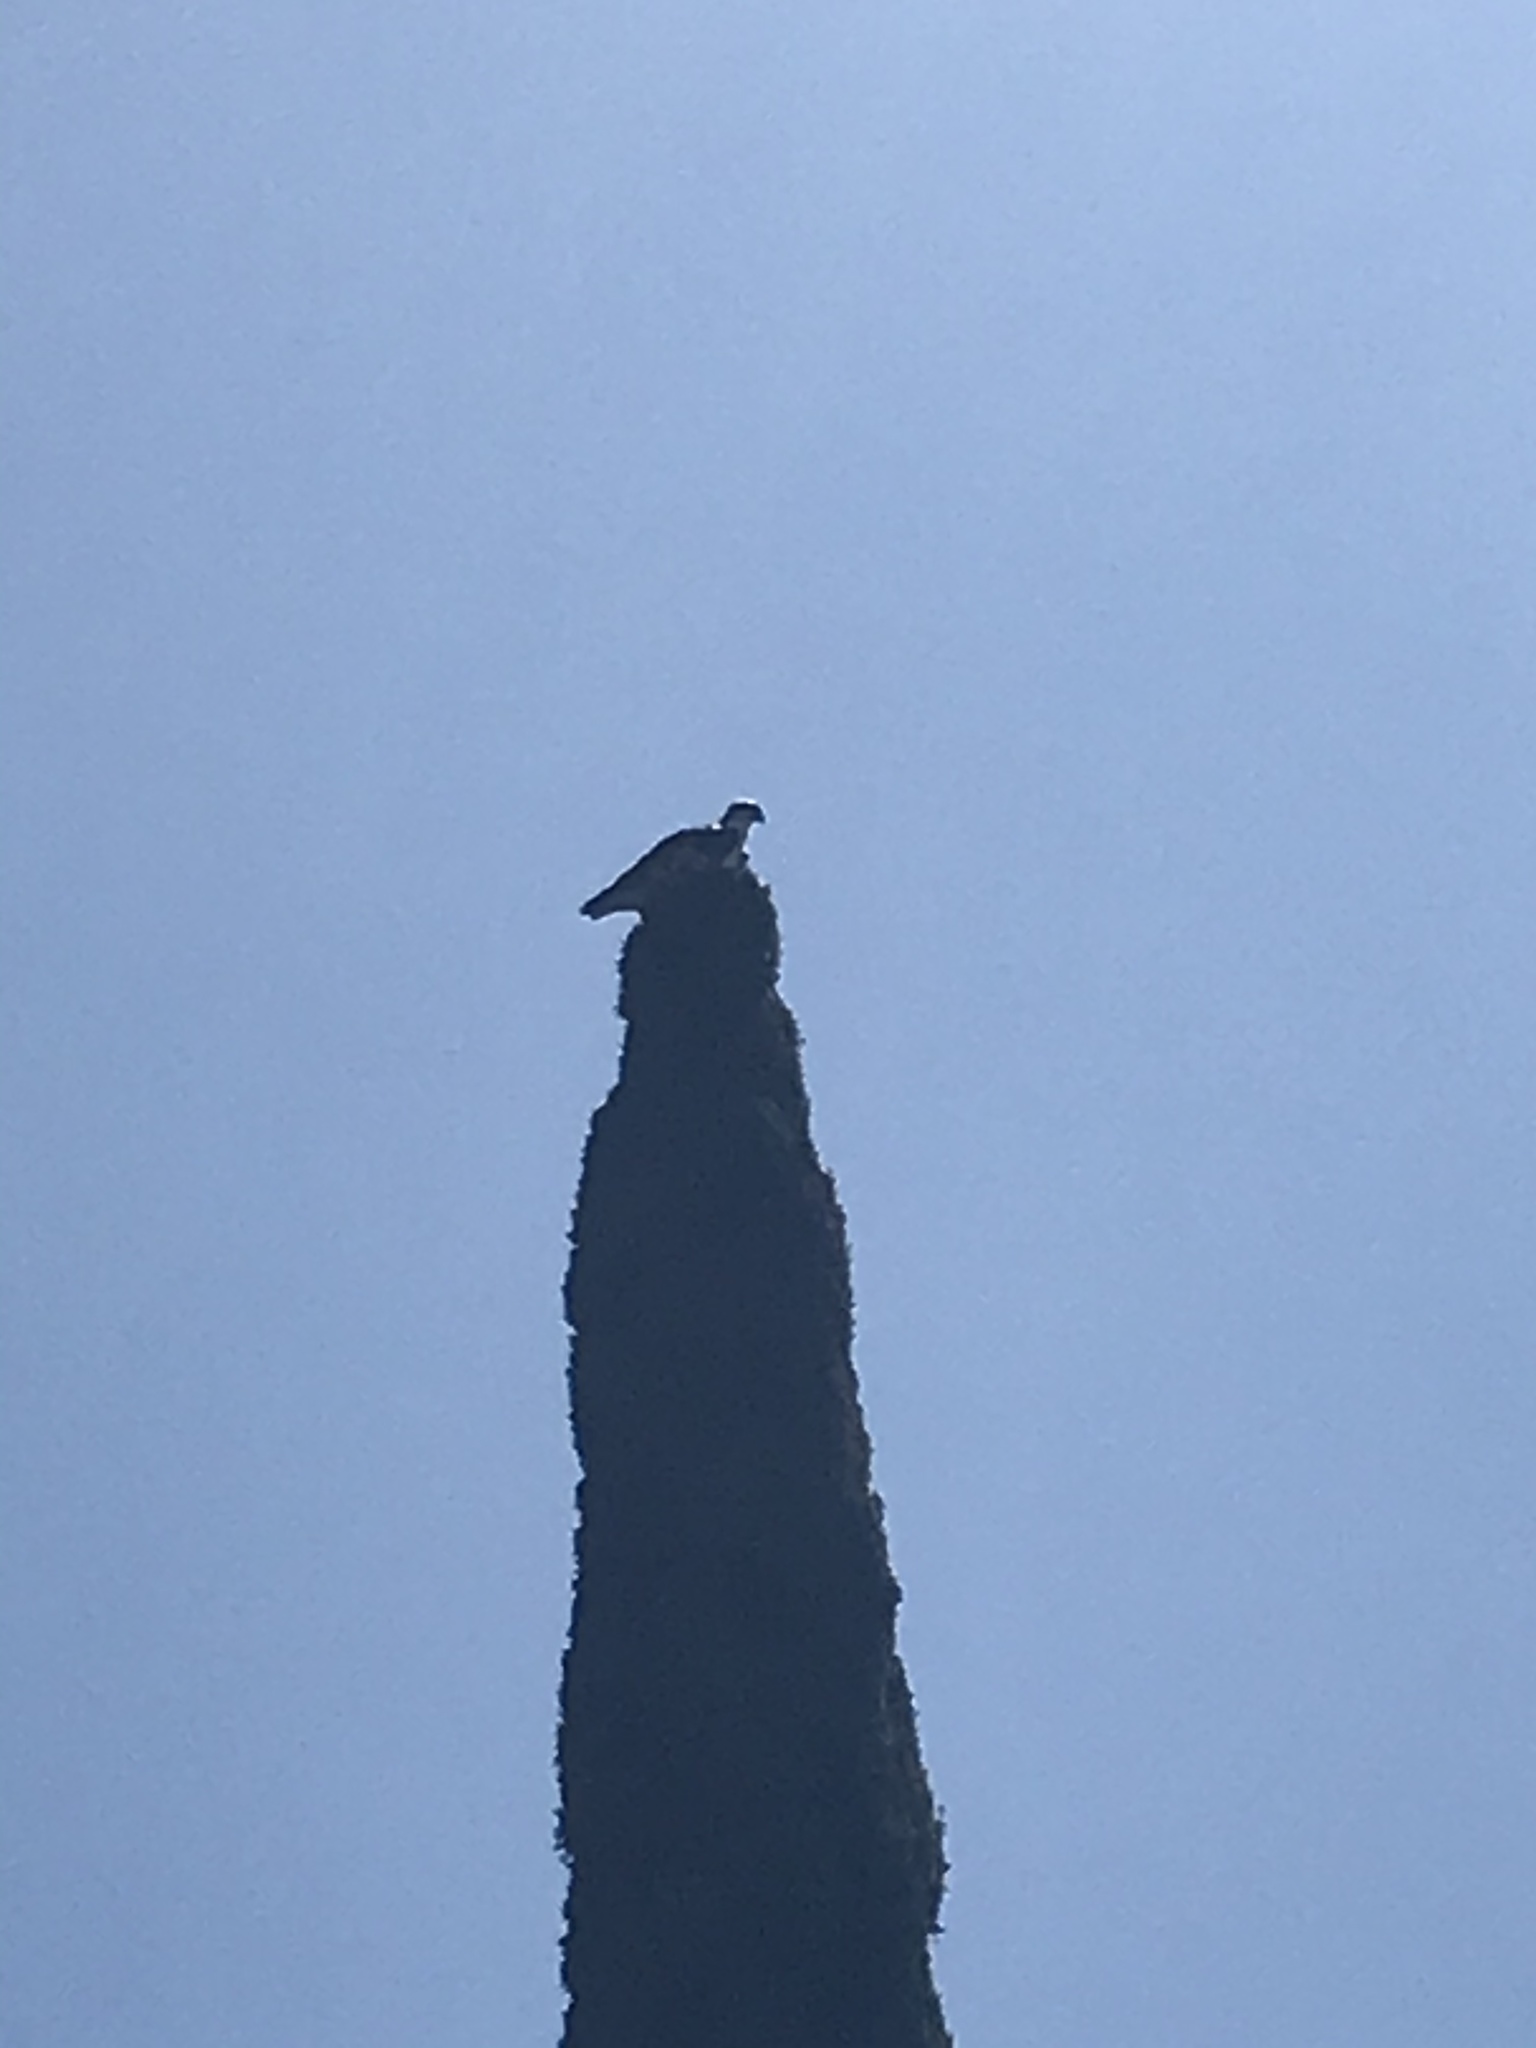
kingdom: Animalia
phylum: Chordata
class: Aves
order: Accipitriformes
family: Pandionidae
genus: Pandion
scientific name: Pandion haliaetus
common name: Osprey
